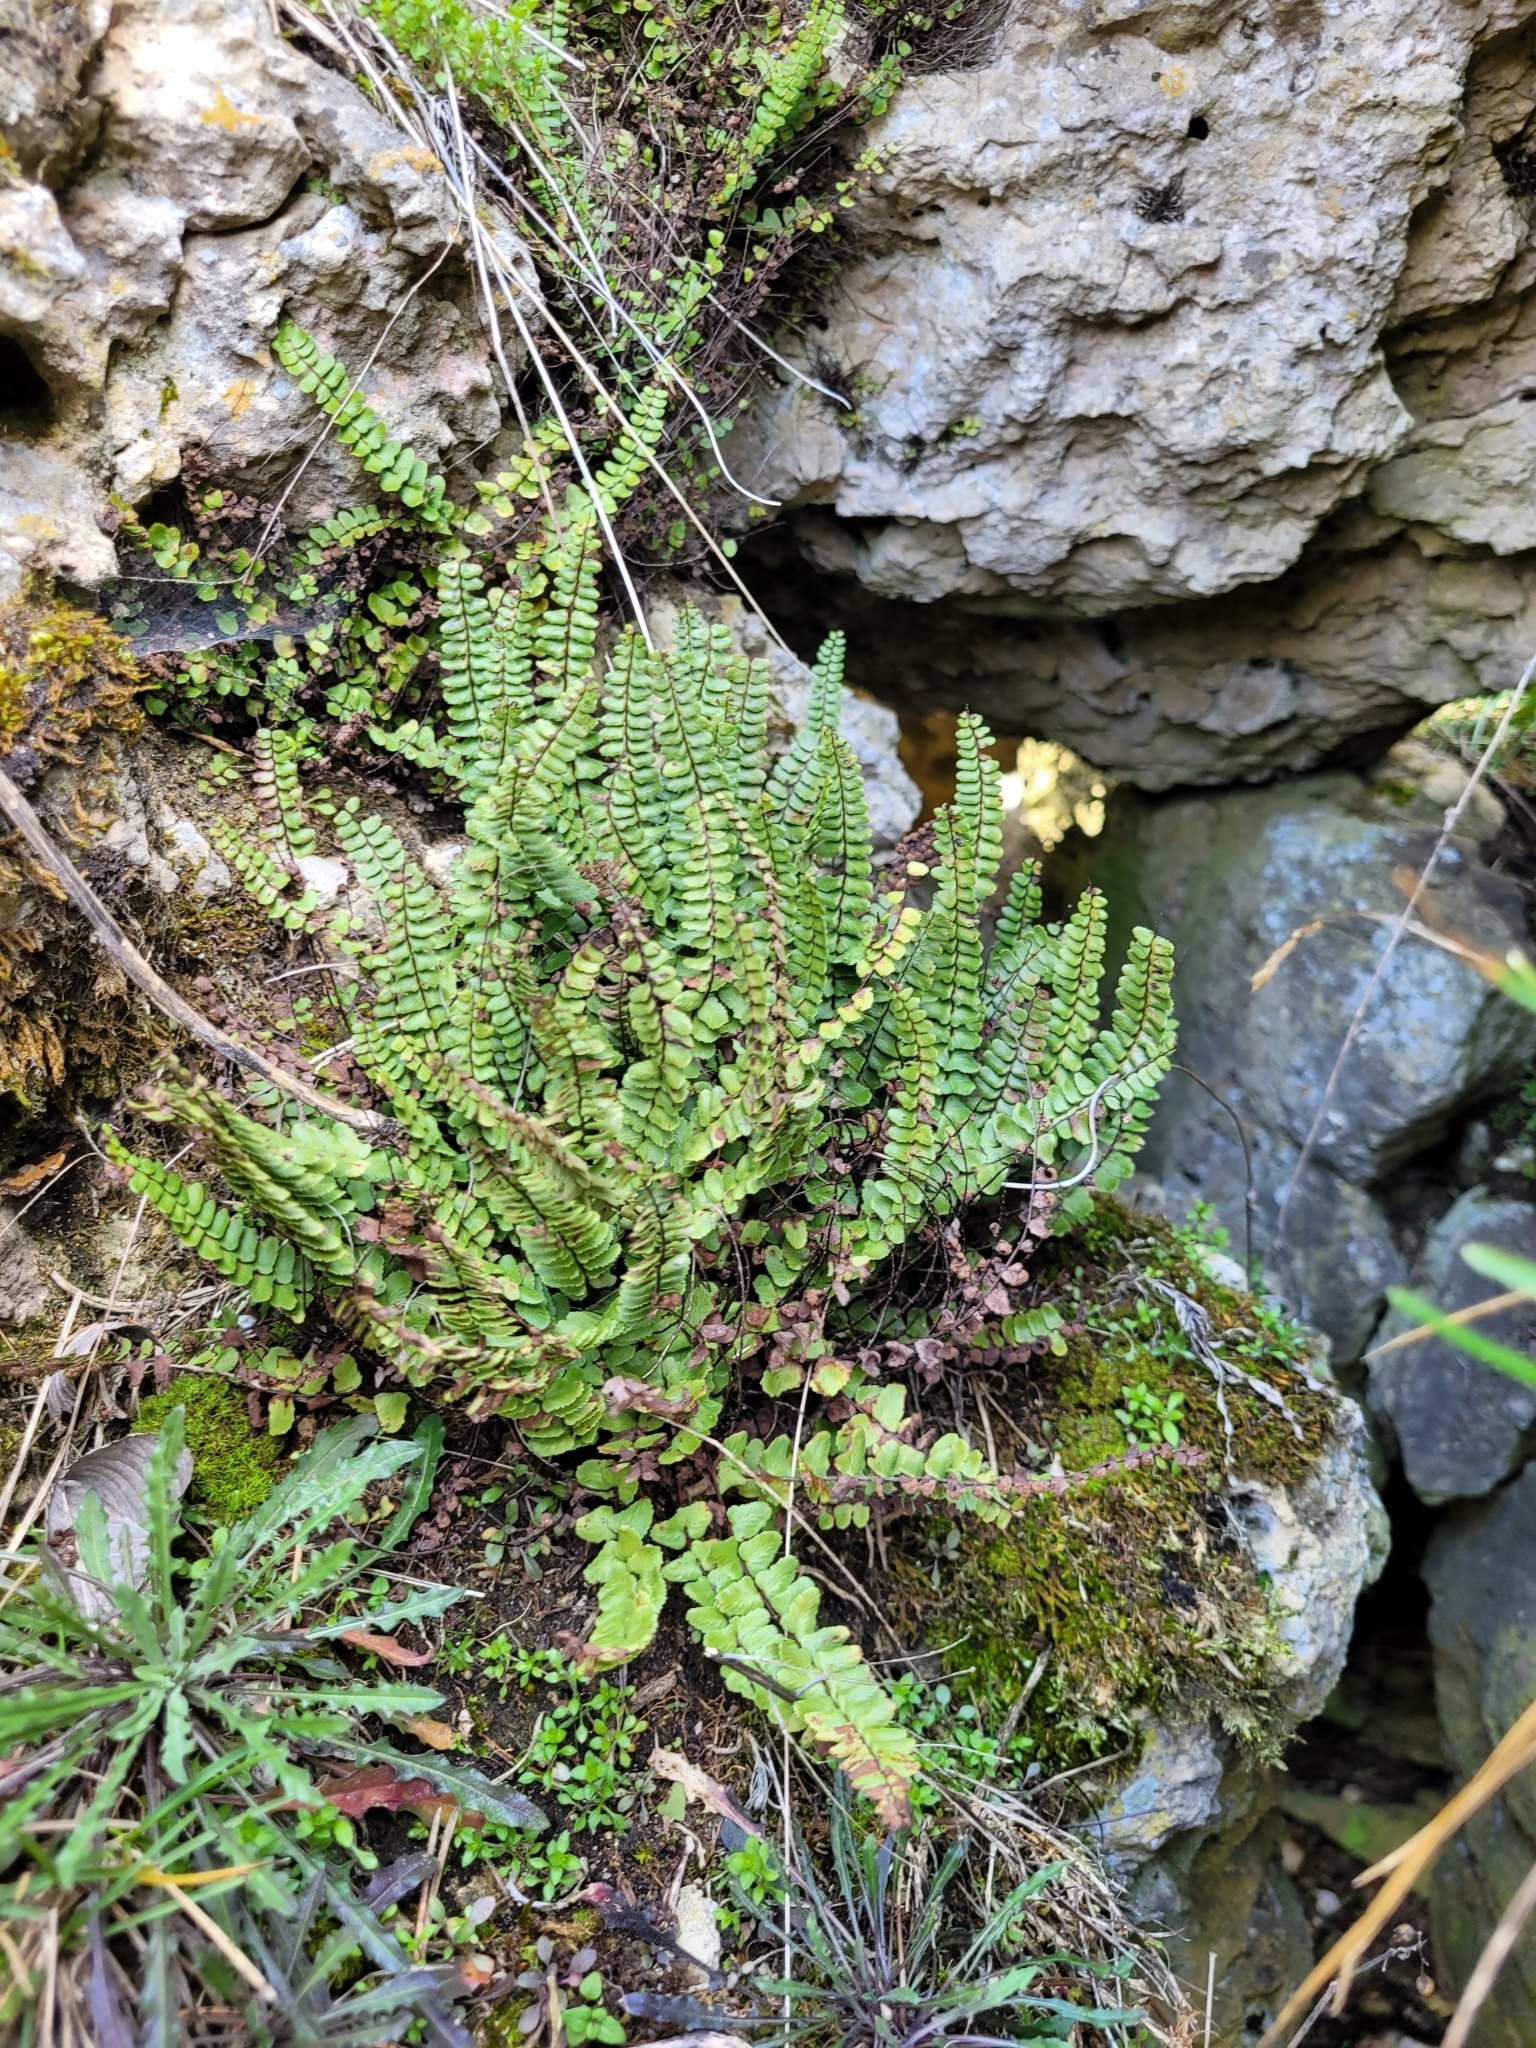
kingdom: Plantae
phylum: Tracheophyta
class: Polypodiopsida
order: Polypodiales
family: Aspleniaceae
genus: Asplenium
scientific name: Asplenium trichomanes
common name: Maidenhair spleenwort
